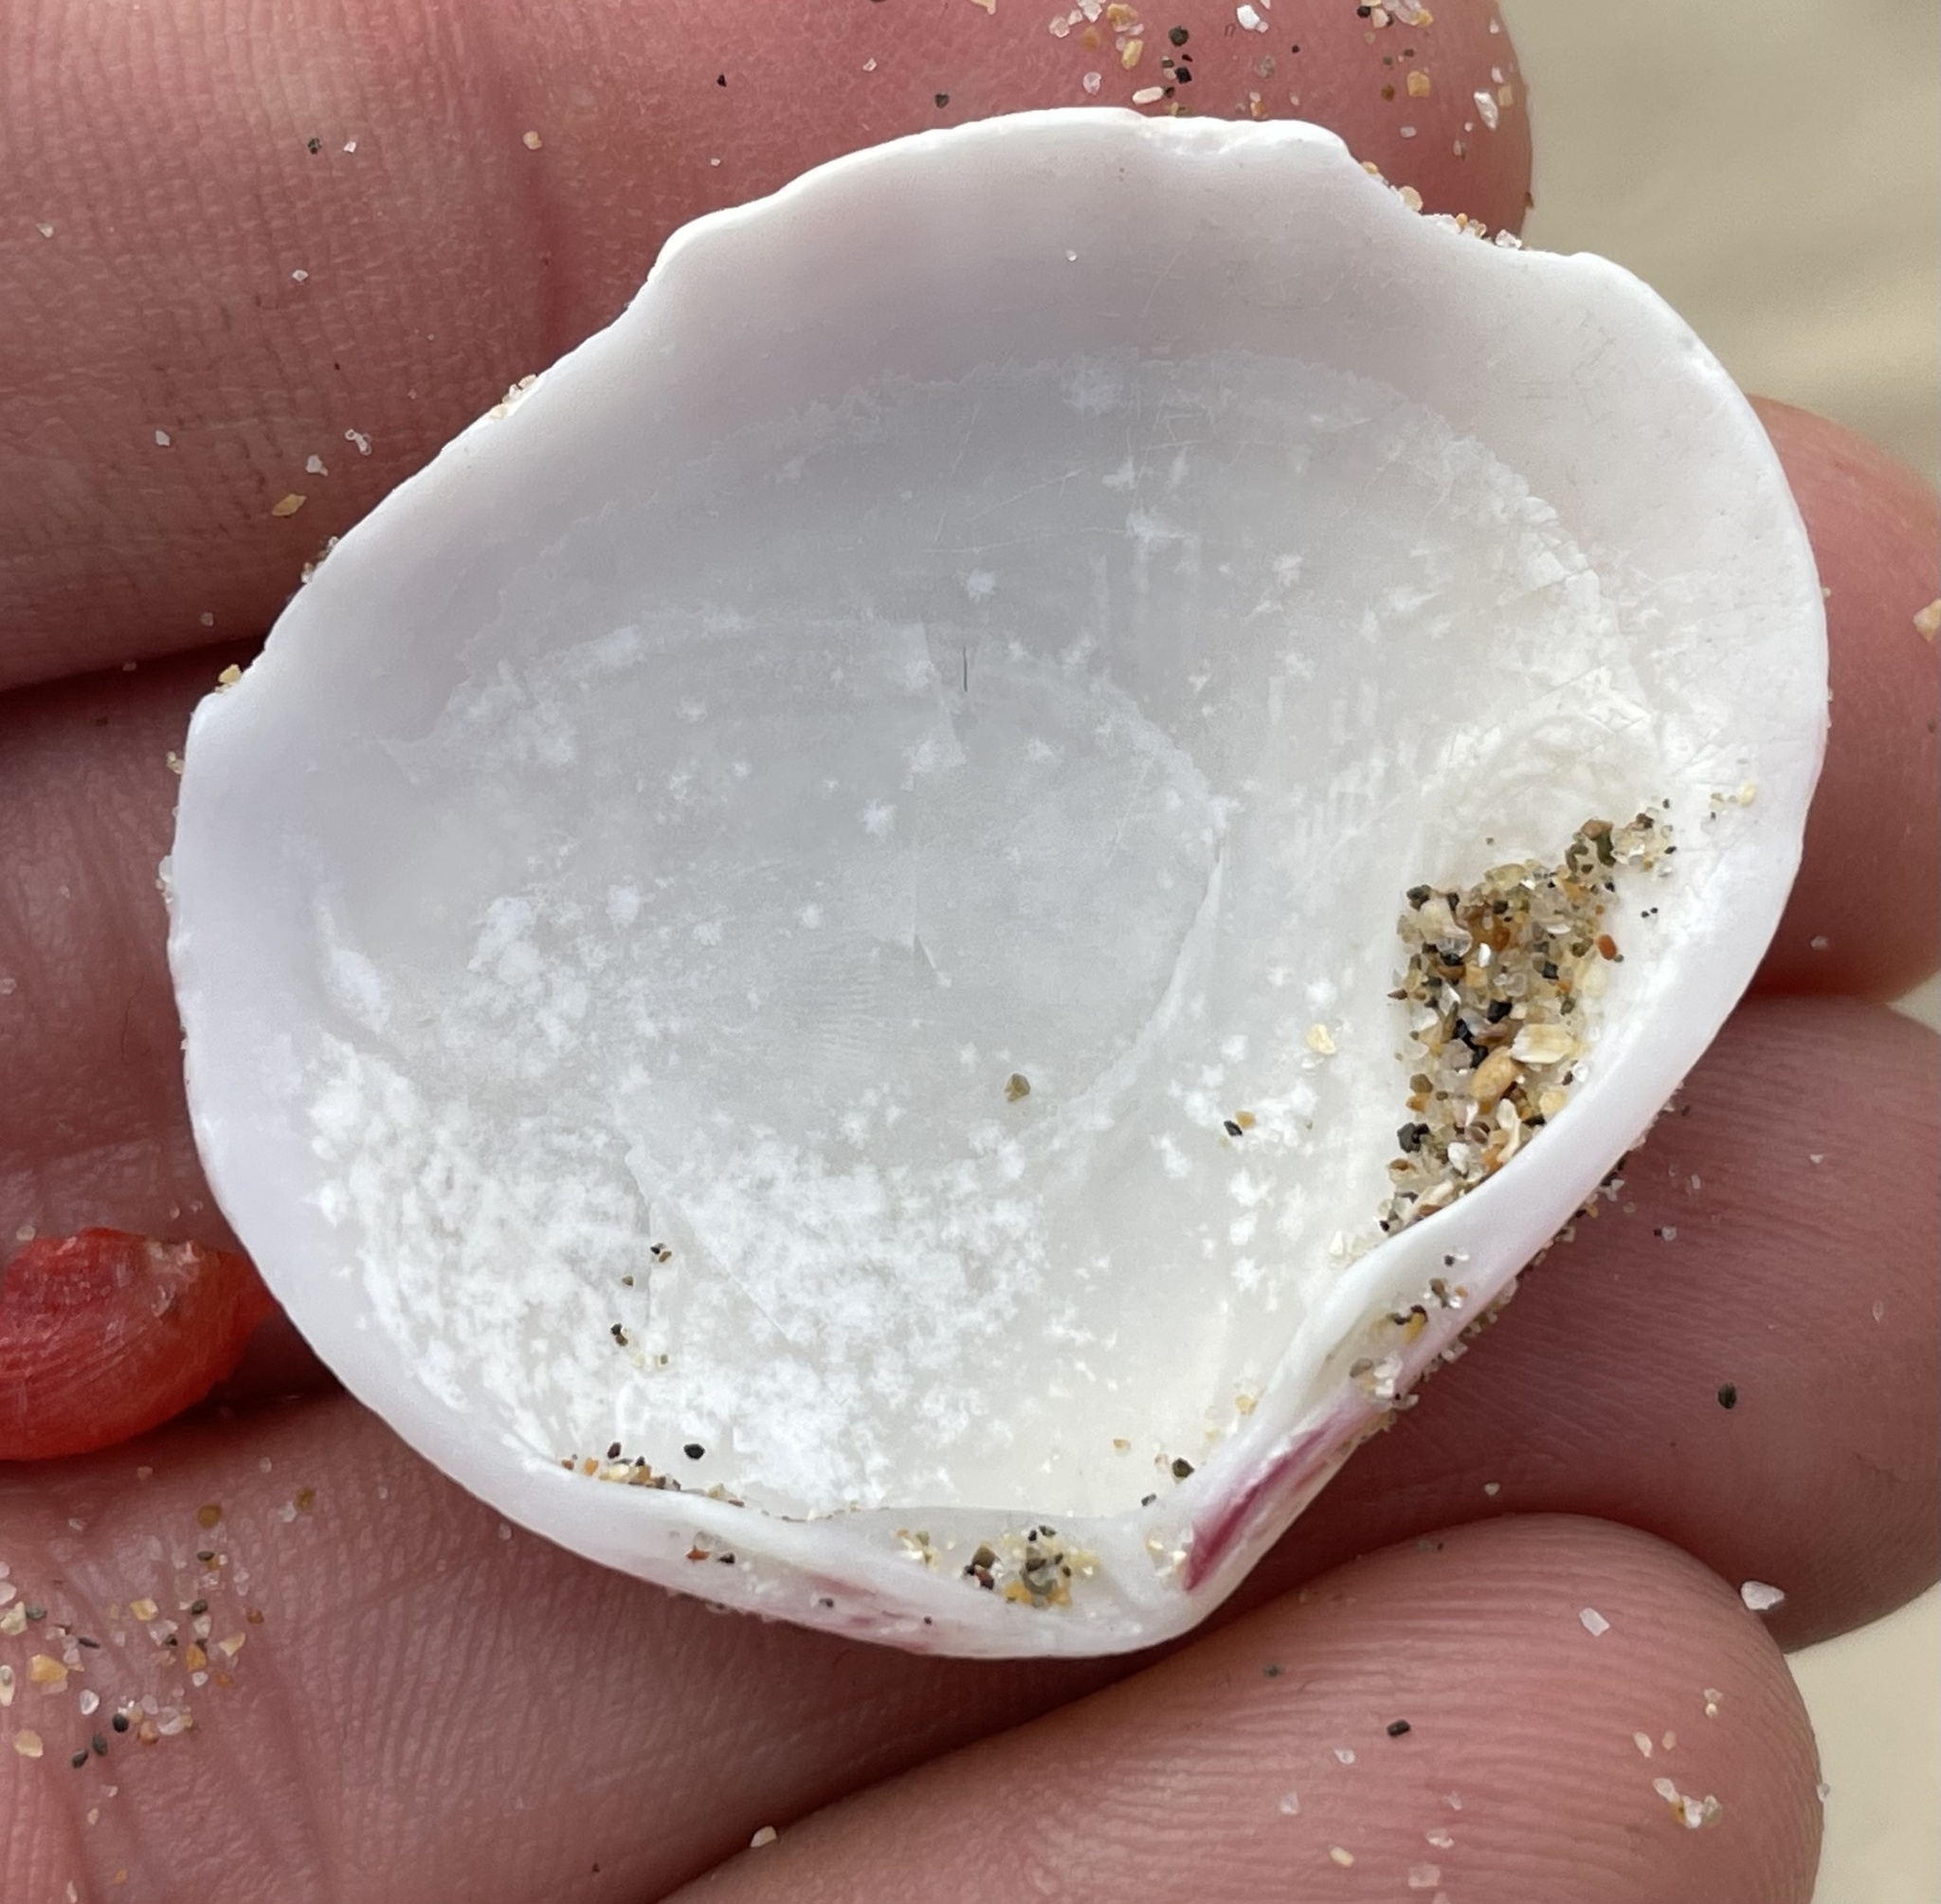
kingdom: Animalia
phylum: Mollusca
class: Bivalvia
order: Cardiida
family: Semelidae
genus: Semele
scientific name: Semele rubropicta
